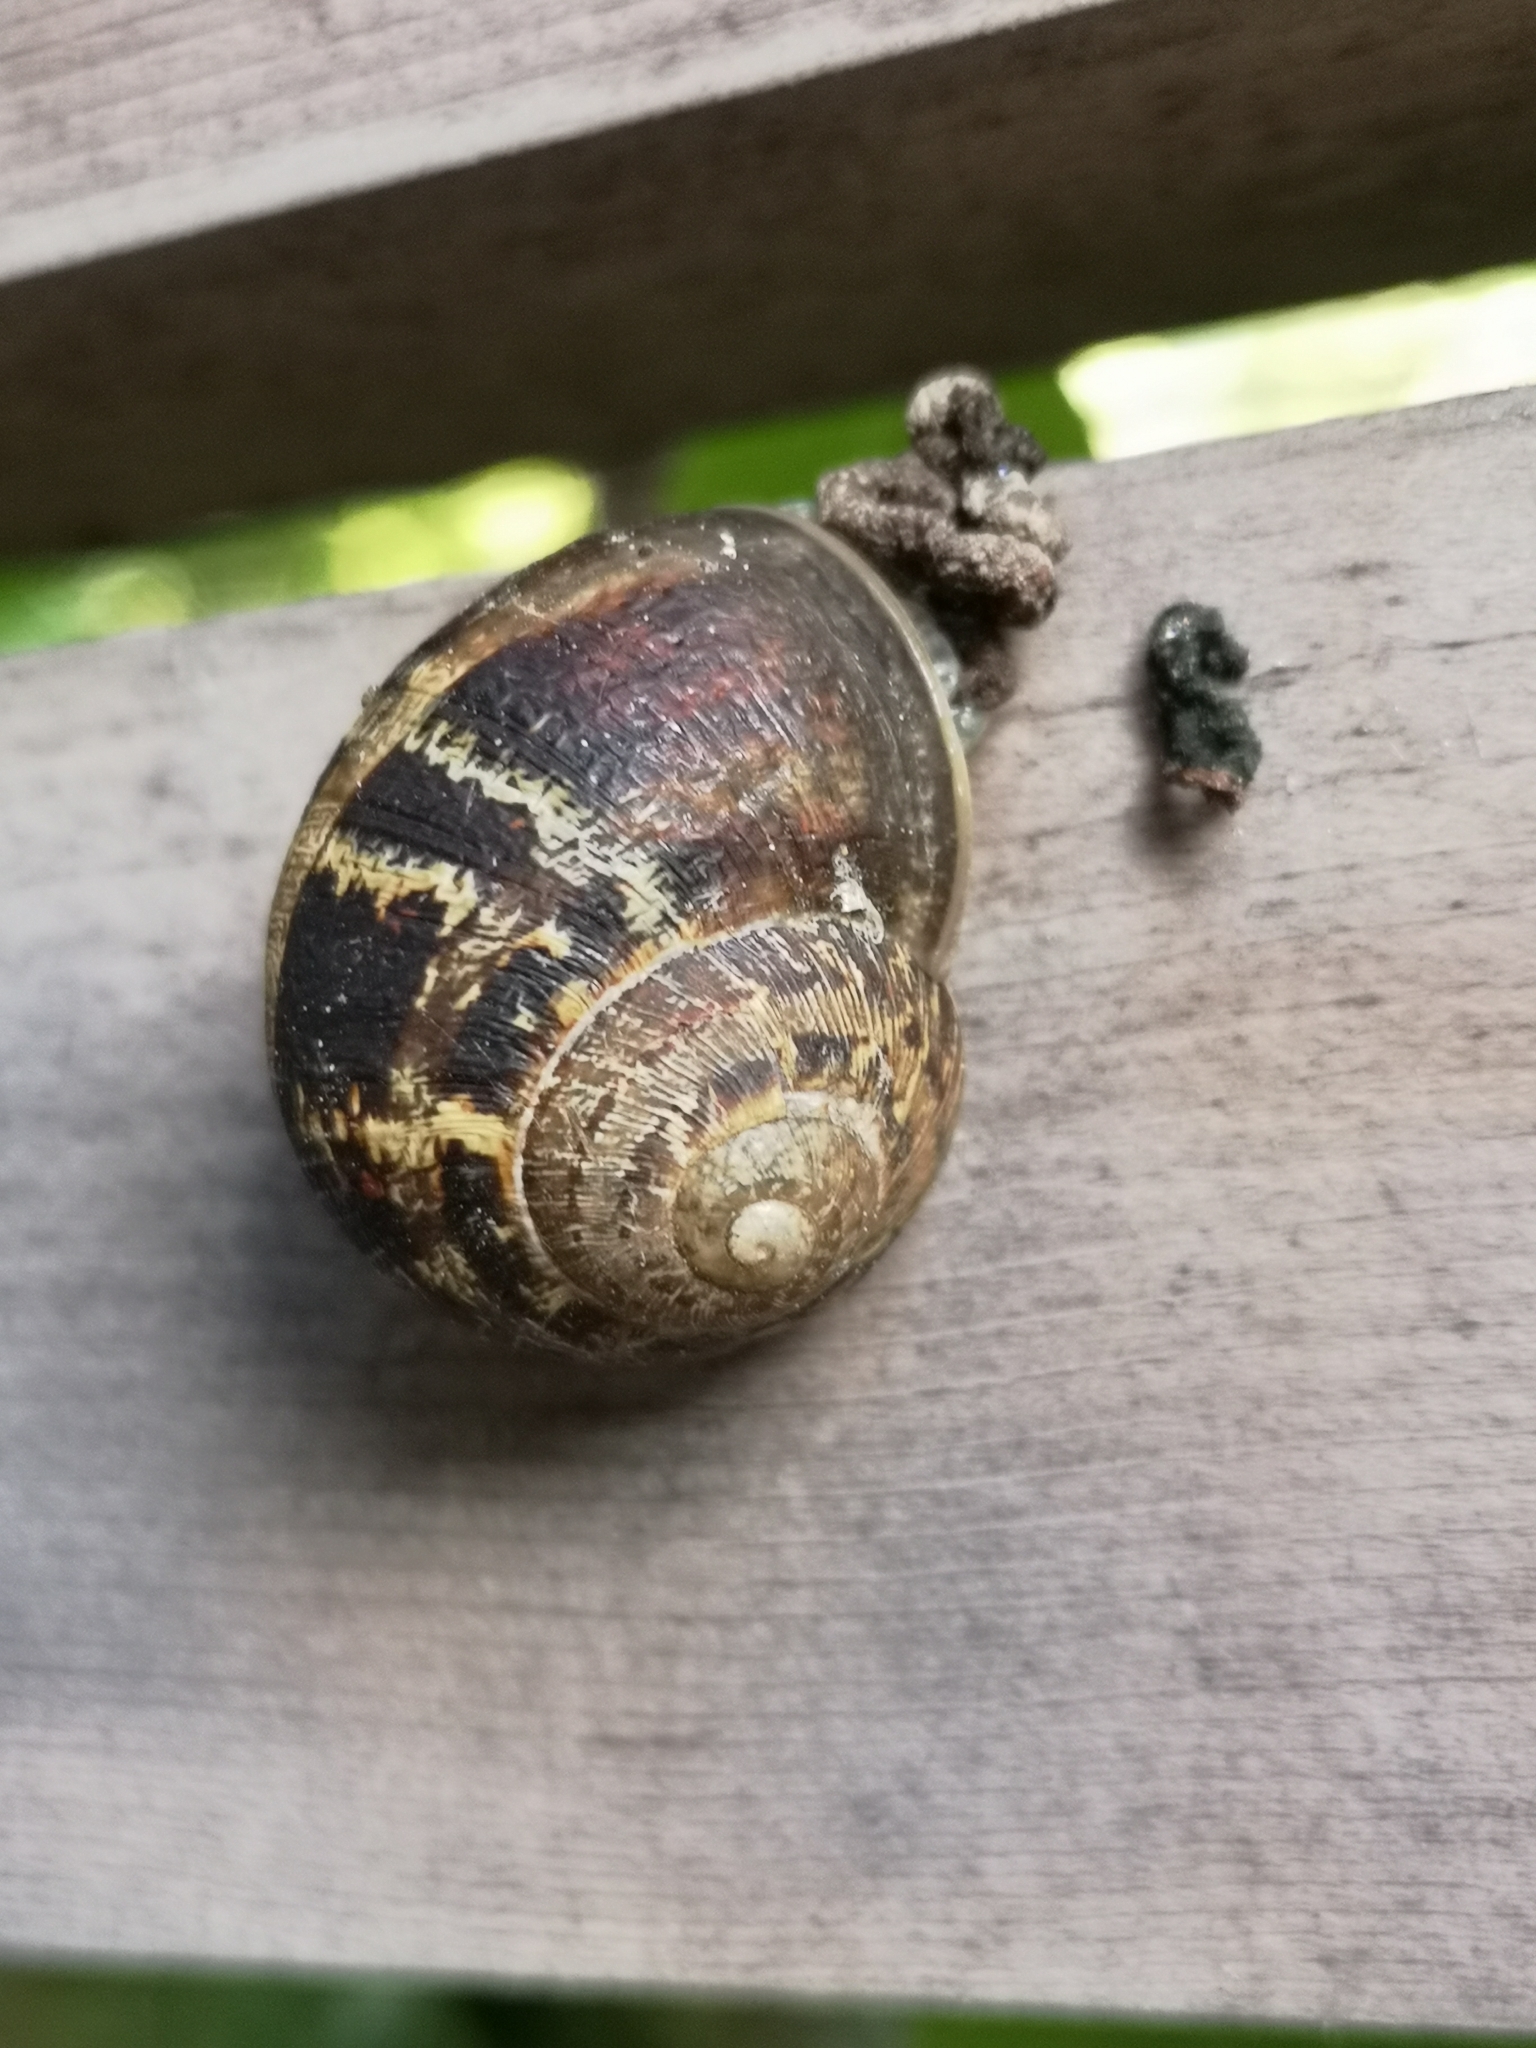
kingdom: Animalia
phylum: Mollusca
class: Gastropoda
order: Stylommatophora
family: Helicidae
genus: Cornu
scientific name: Cornu aspersum
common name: Brown garden snail
